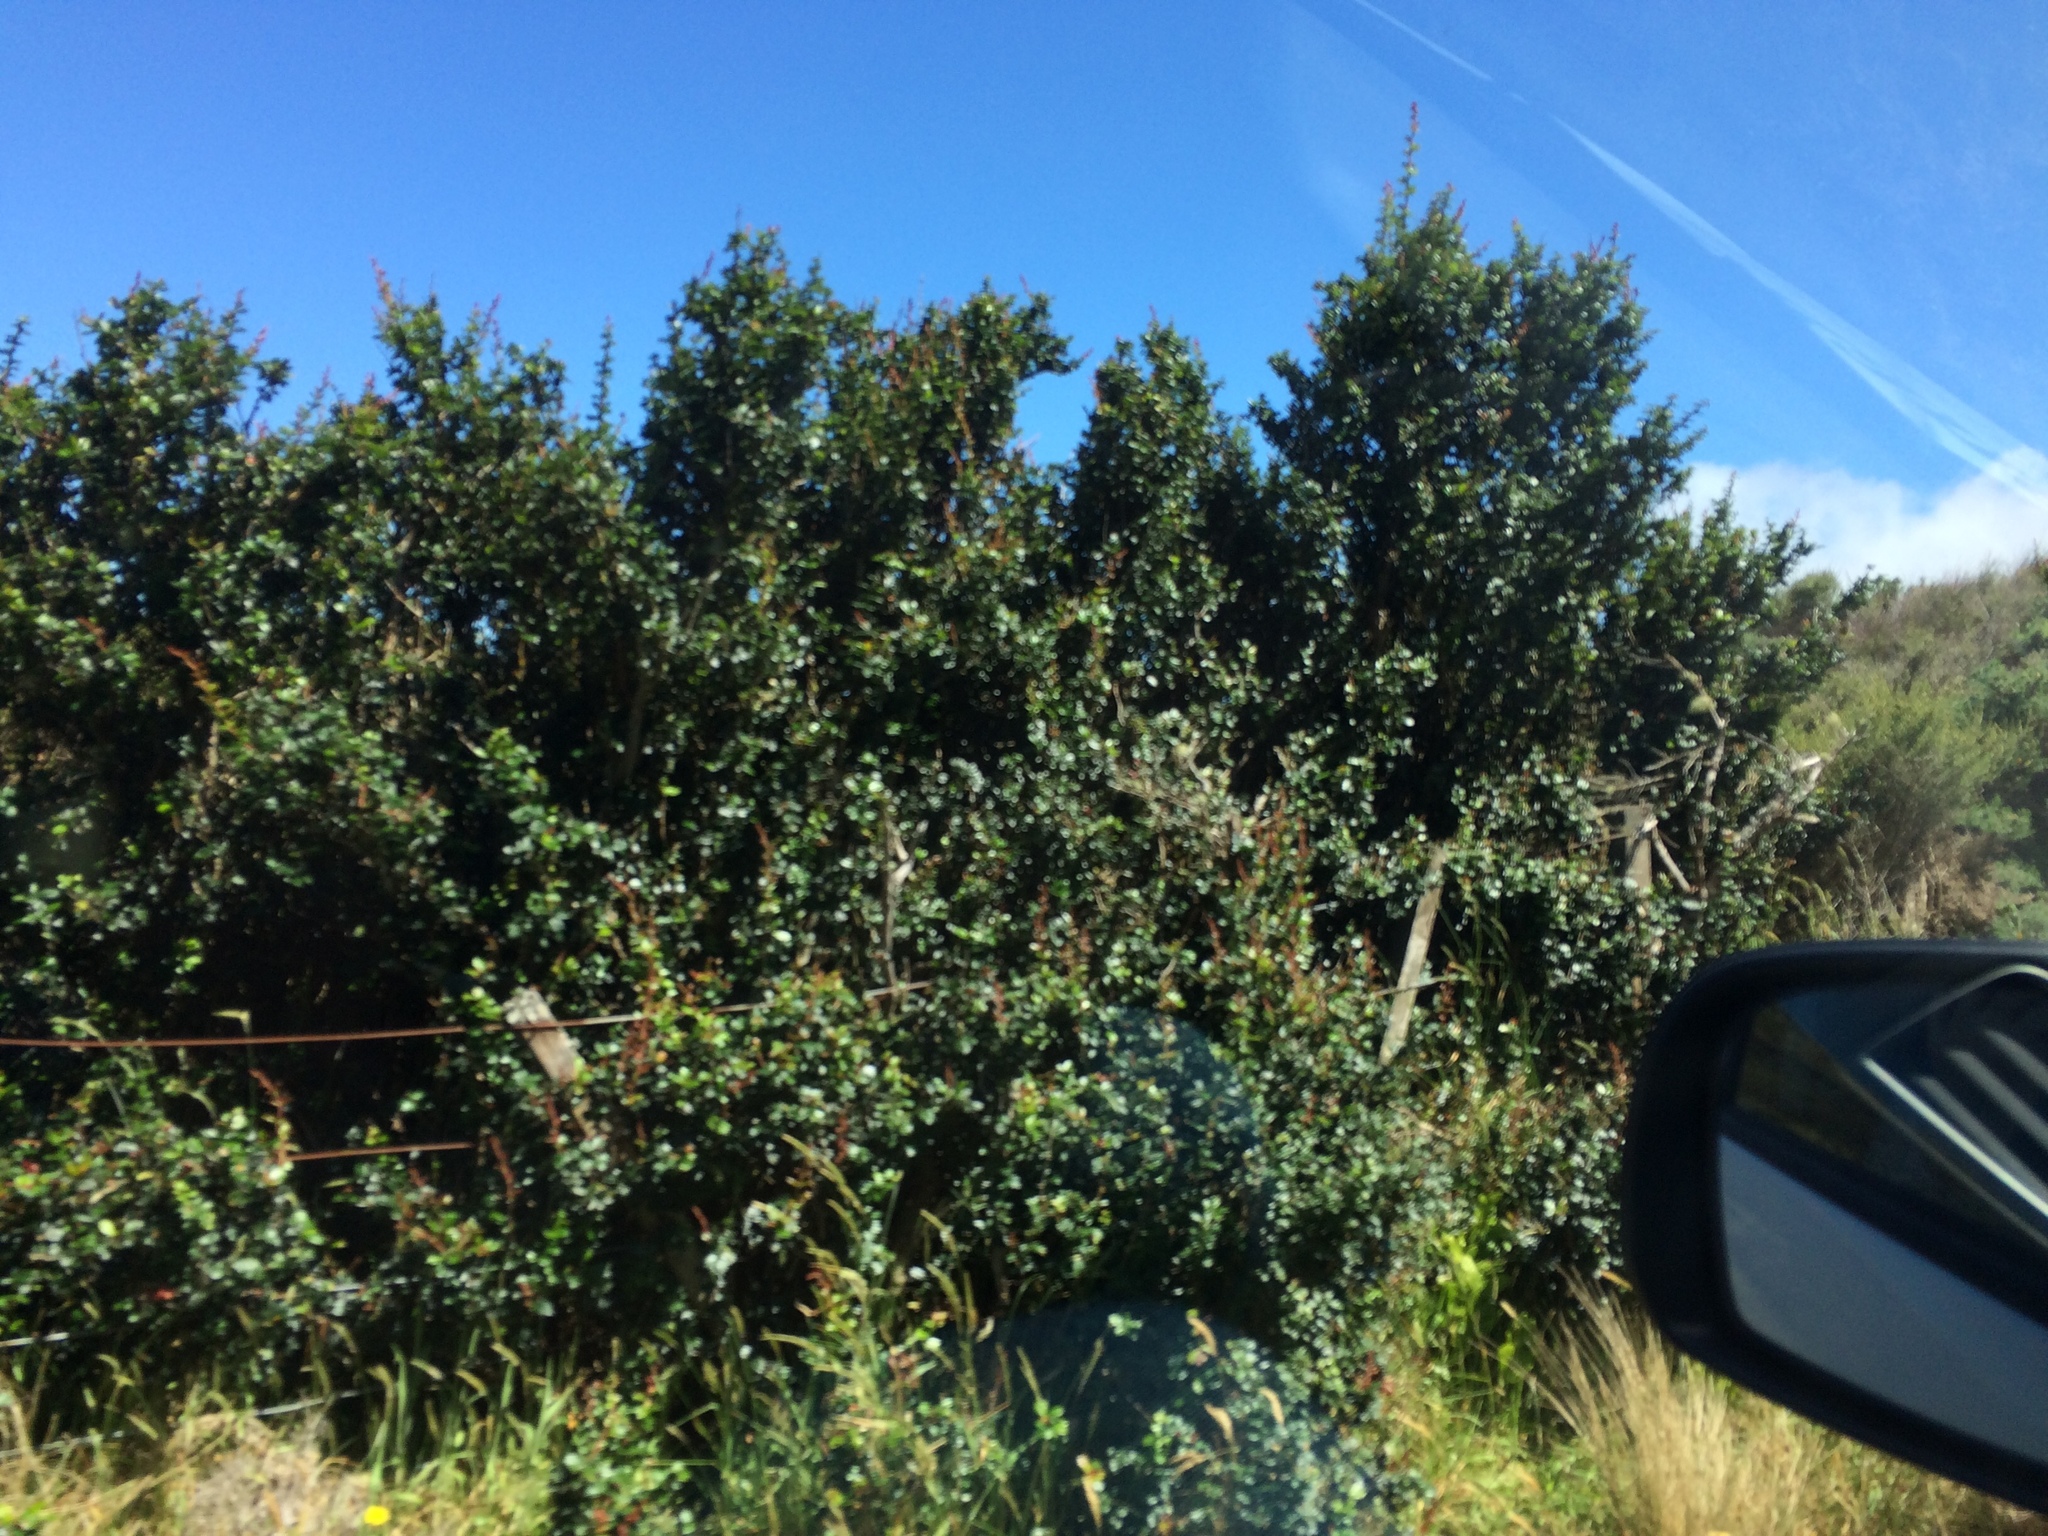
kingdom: Plantae
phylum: Tracheophyta
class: Magnoliopsida
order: Ranunculales
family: Berberidaceae
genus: Berberis
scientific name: Berberis darwinii
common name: Darwin's barberry
